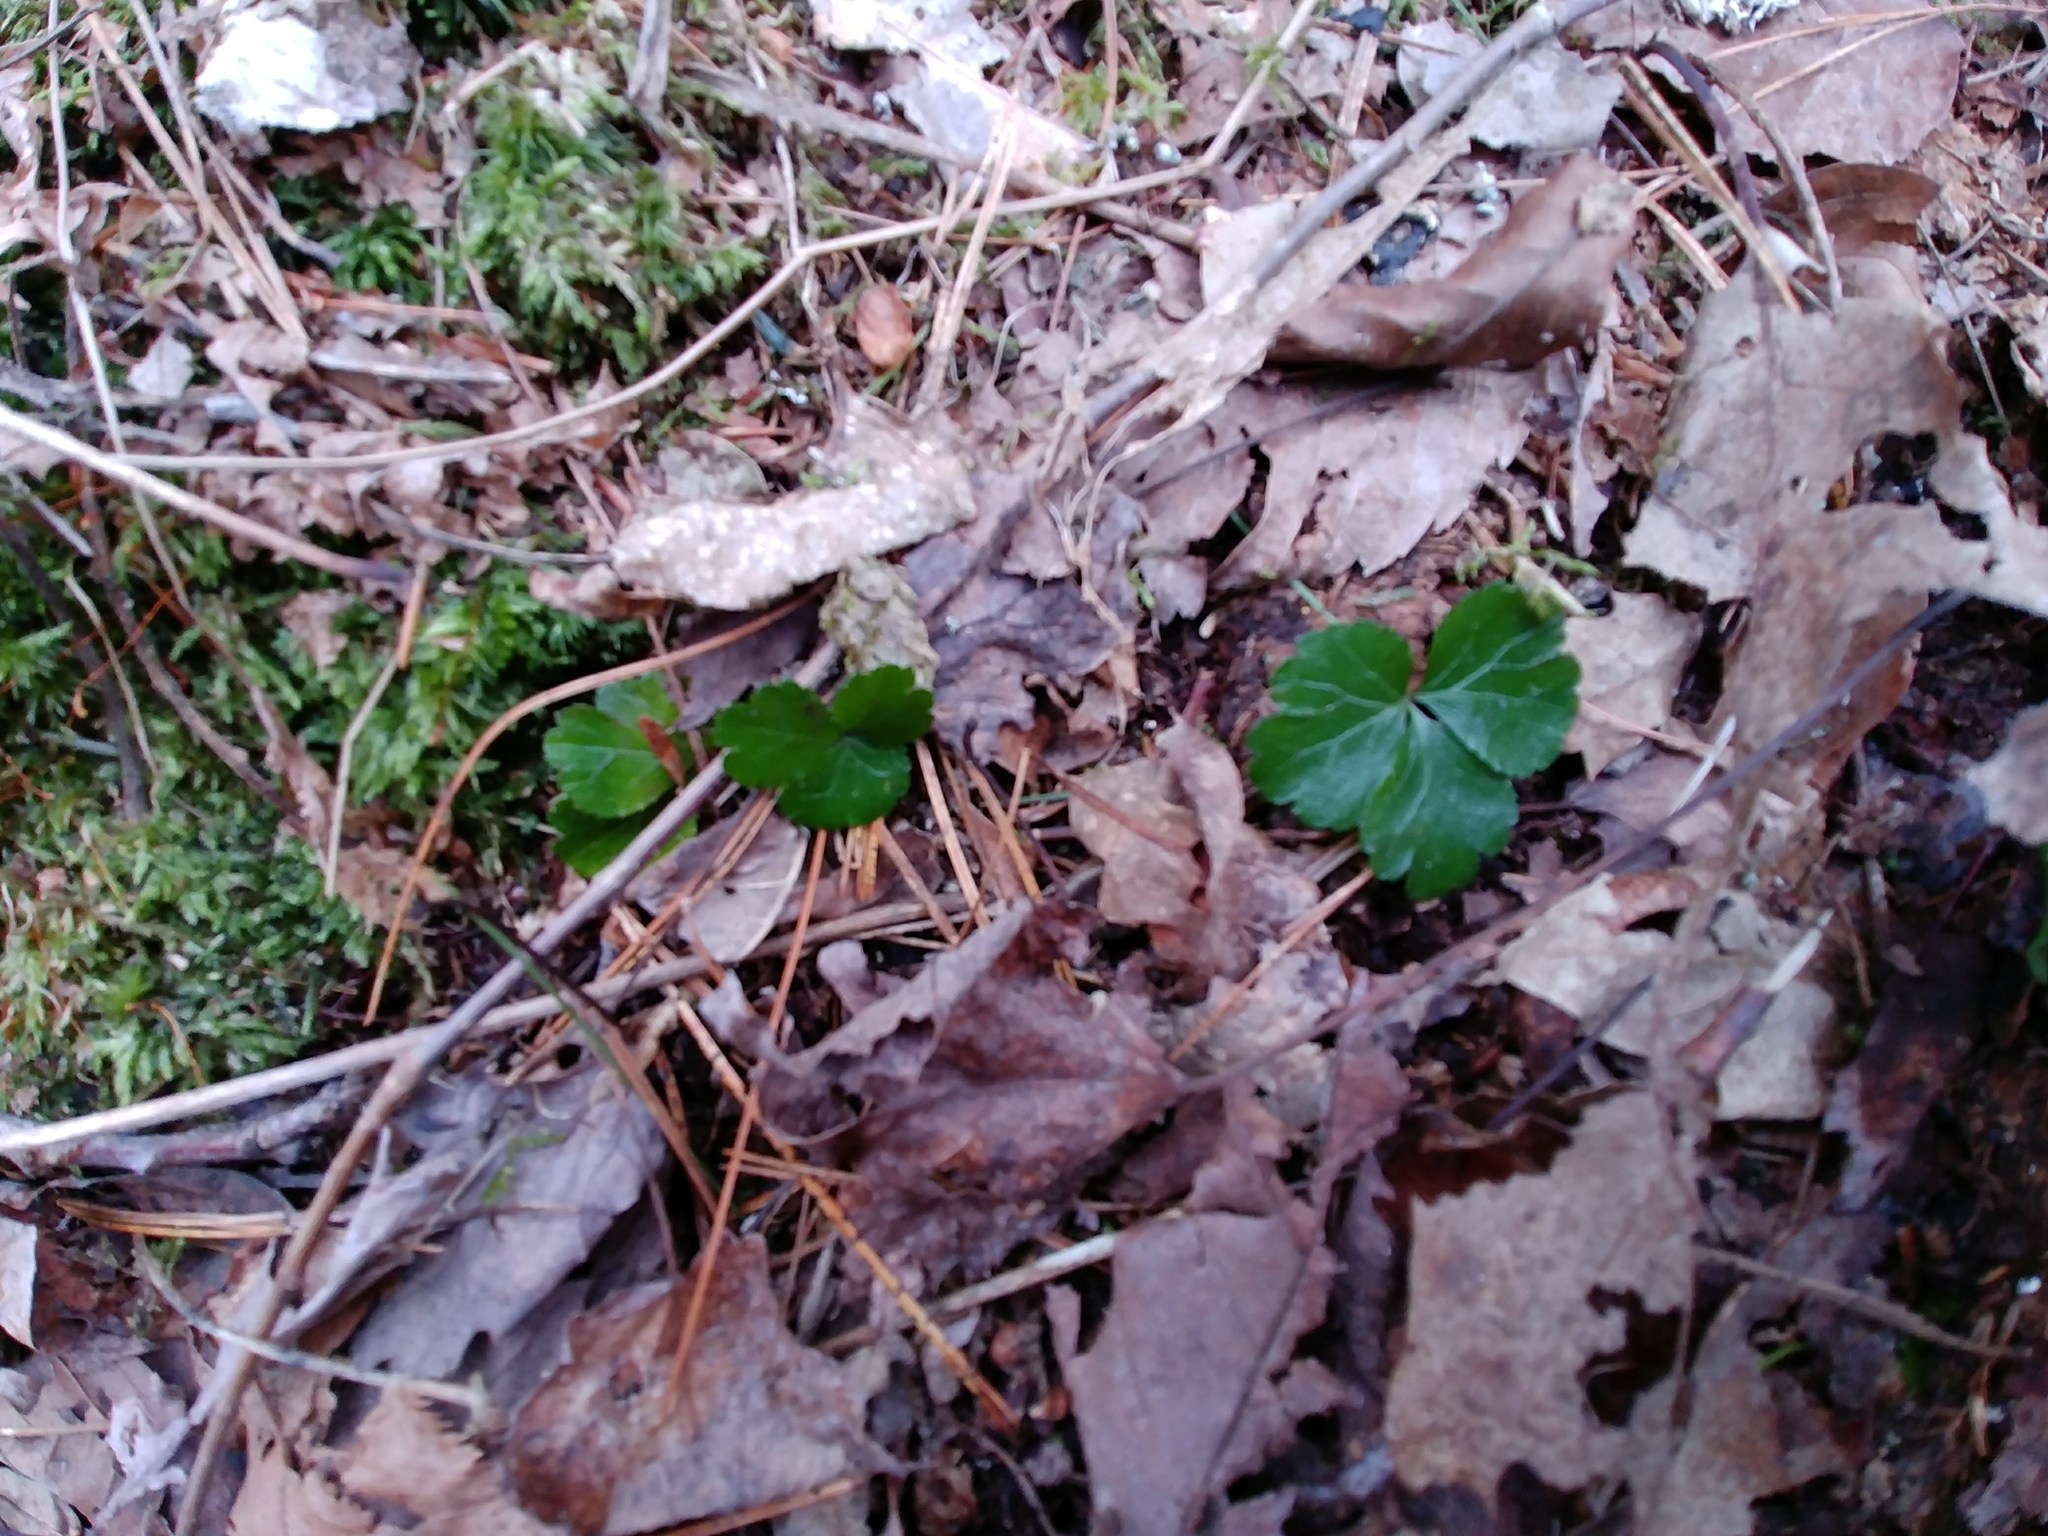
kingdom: Plantae
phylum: Tracheophyta
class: Magnoliopsida
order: Ranunculales
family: Ranunculaceae
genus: Coptis
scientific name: Coptis trifolia
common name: Canker-root
